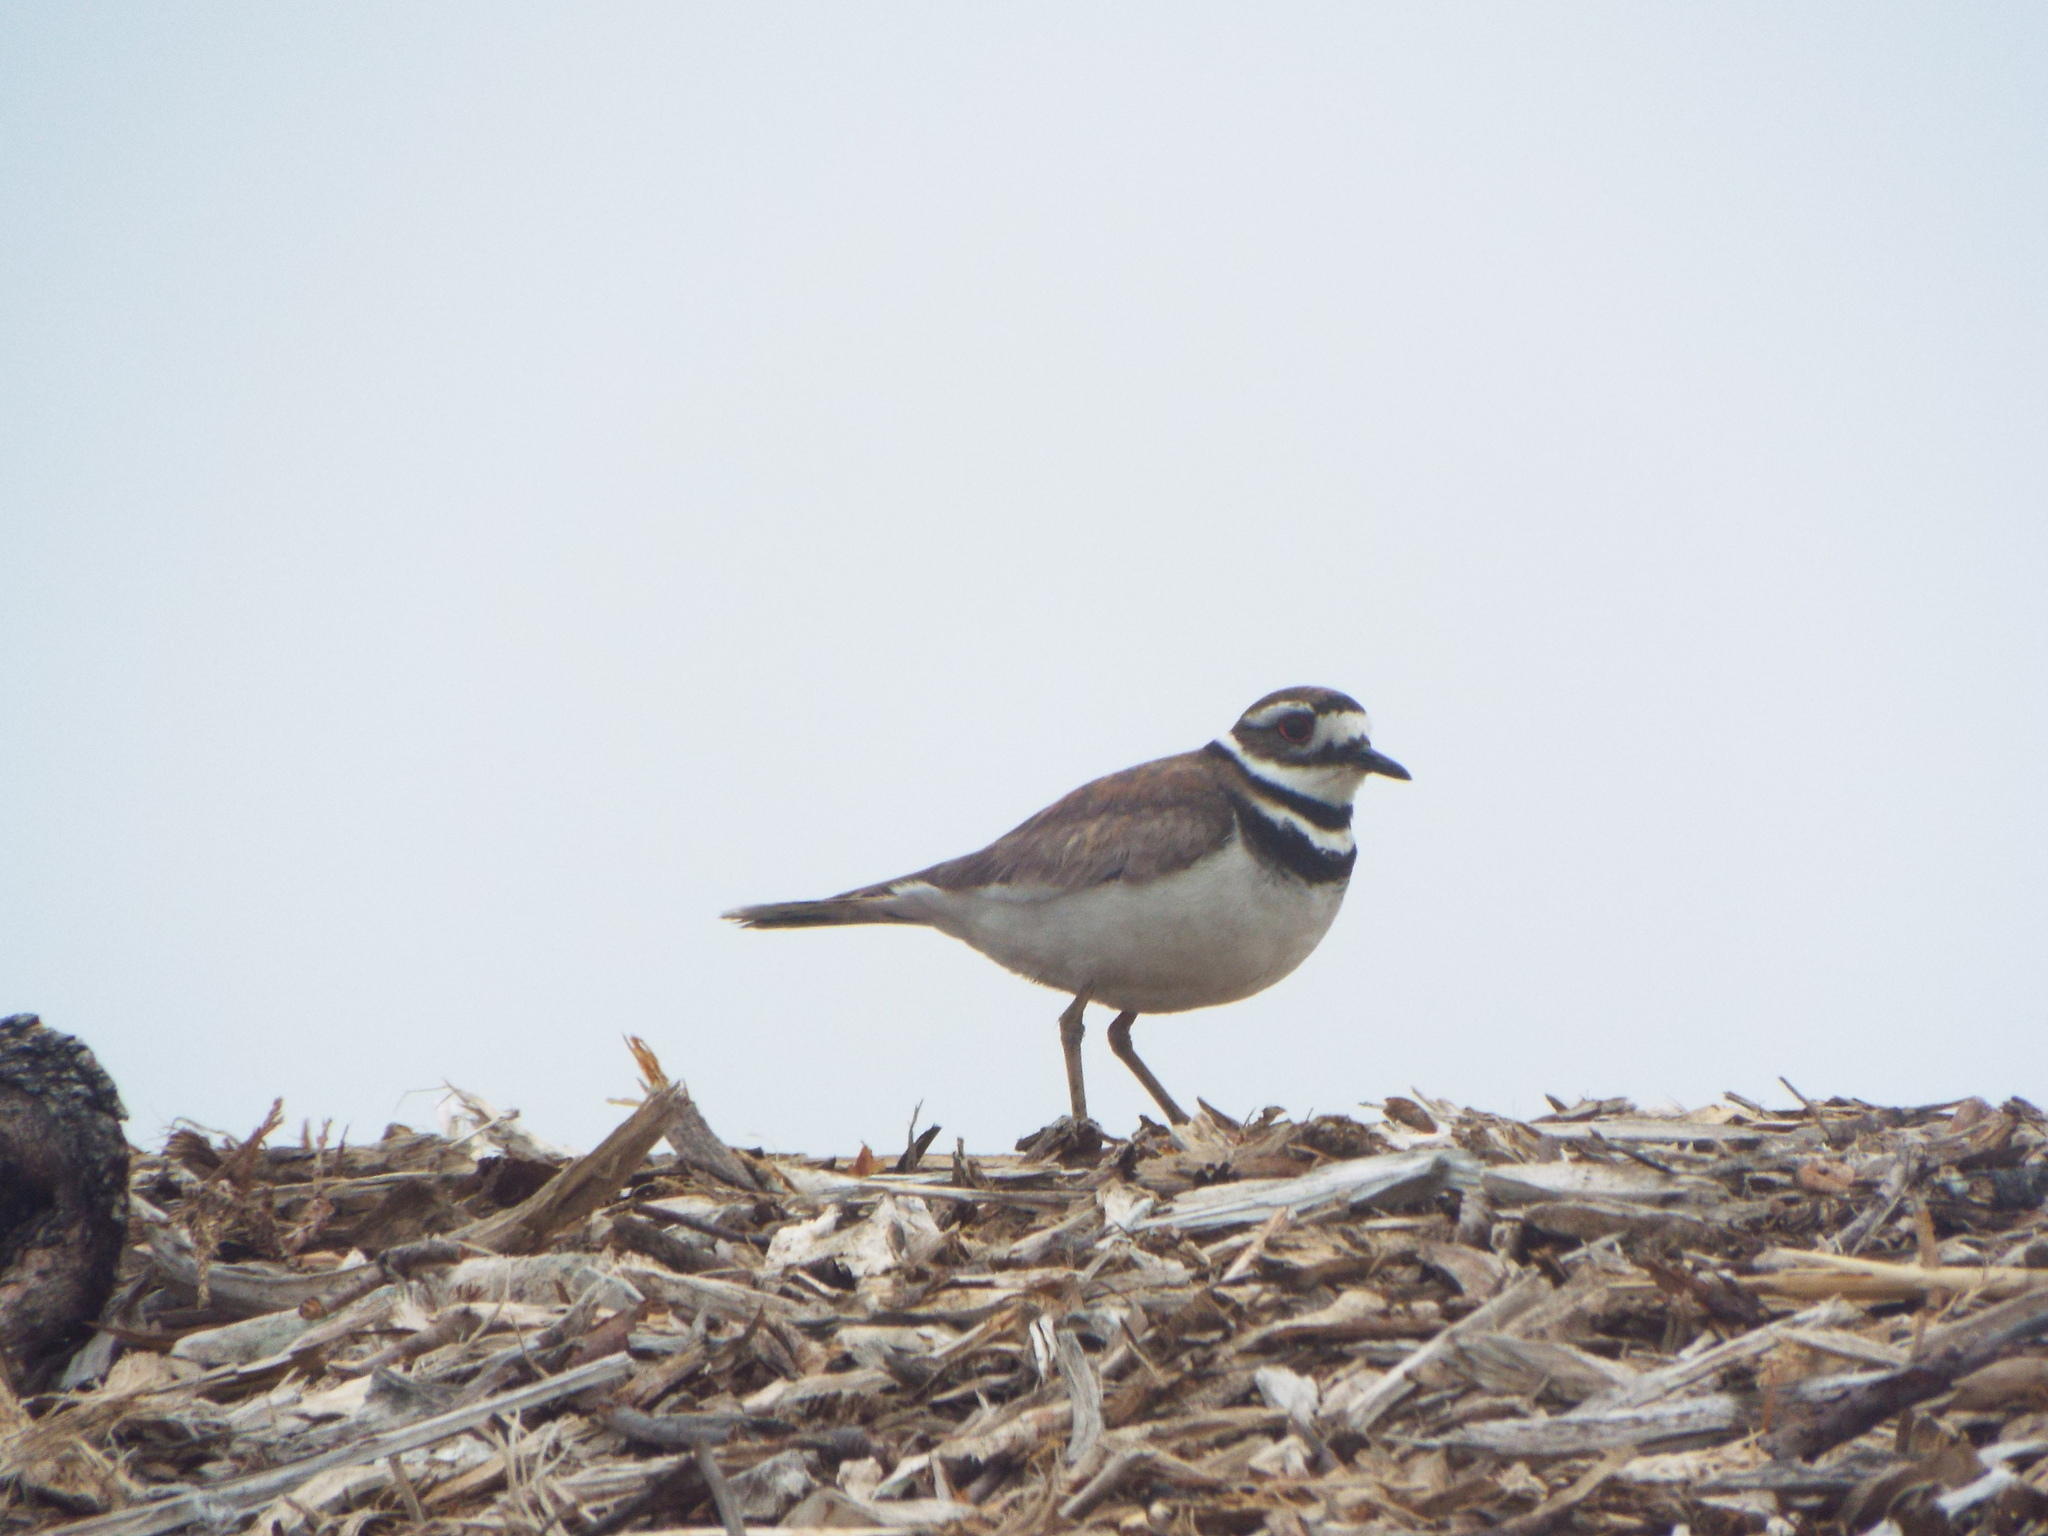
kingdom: Animalia
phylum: Chordata
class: Aves
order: Charadriiformes
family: Charadriidae
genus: Charadrius
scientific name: Charadrius vociferus
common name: Killdeer
